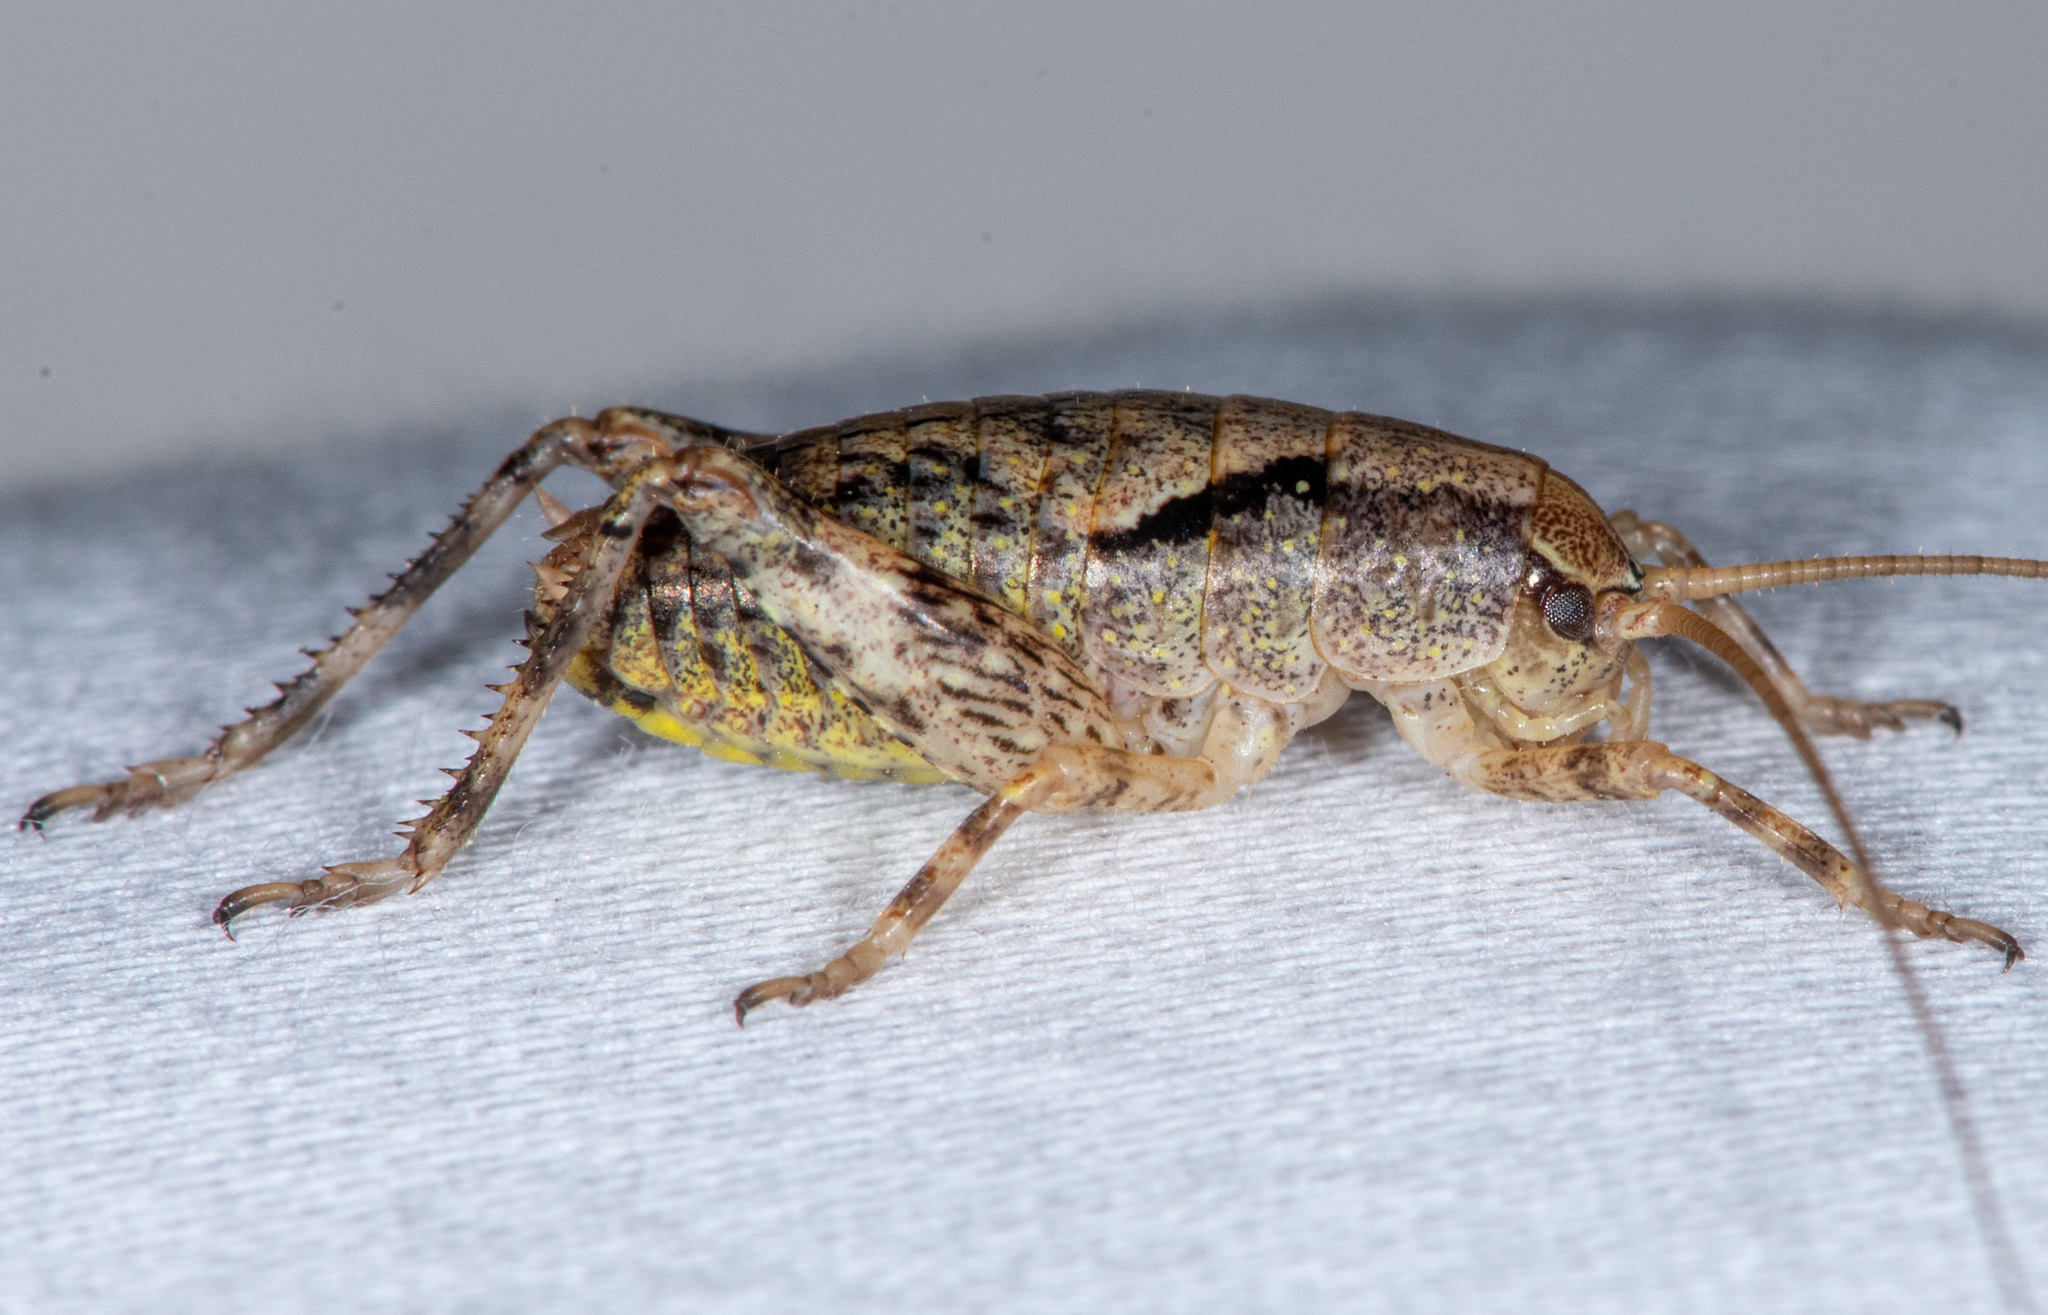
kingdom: Animalia
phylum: Arthropoda
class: Insecta
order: Orthoptera
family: Rhaphidophoridae
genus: Gammarotettix
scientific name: Gammarotettix bilobatus
